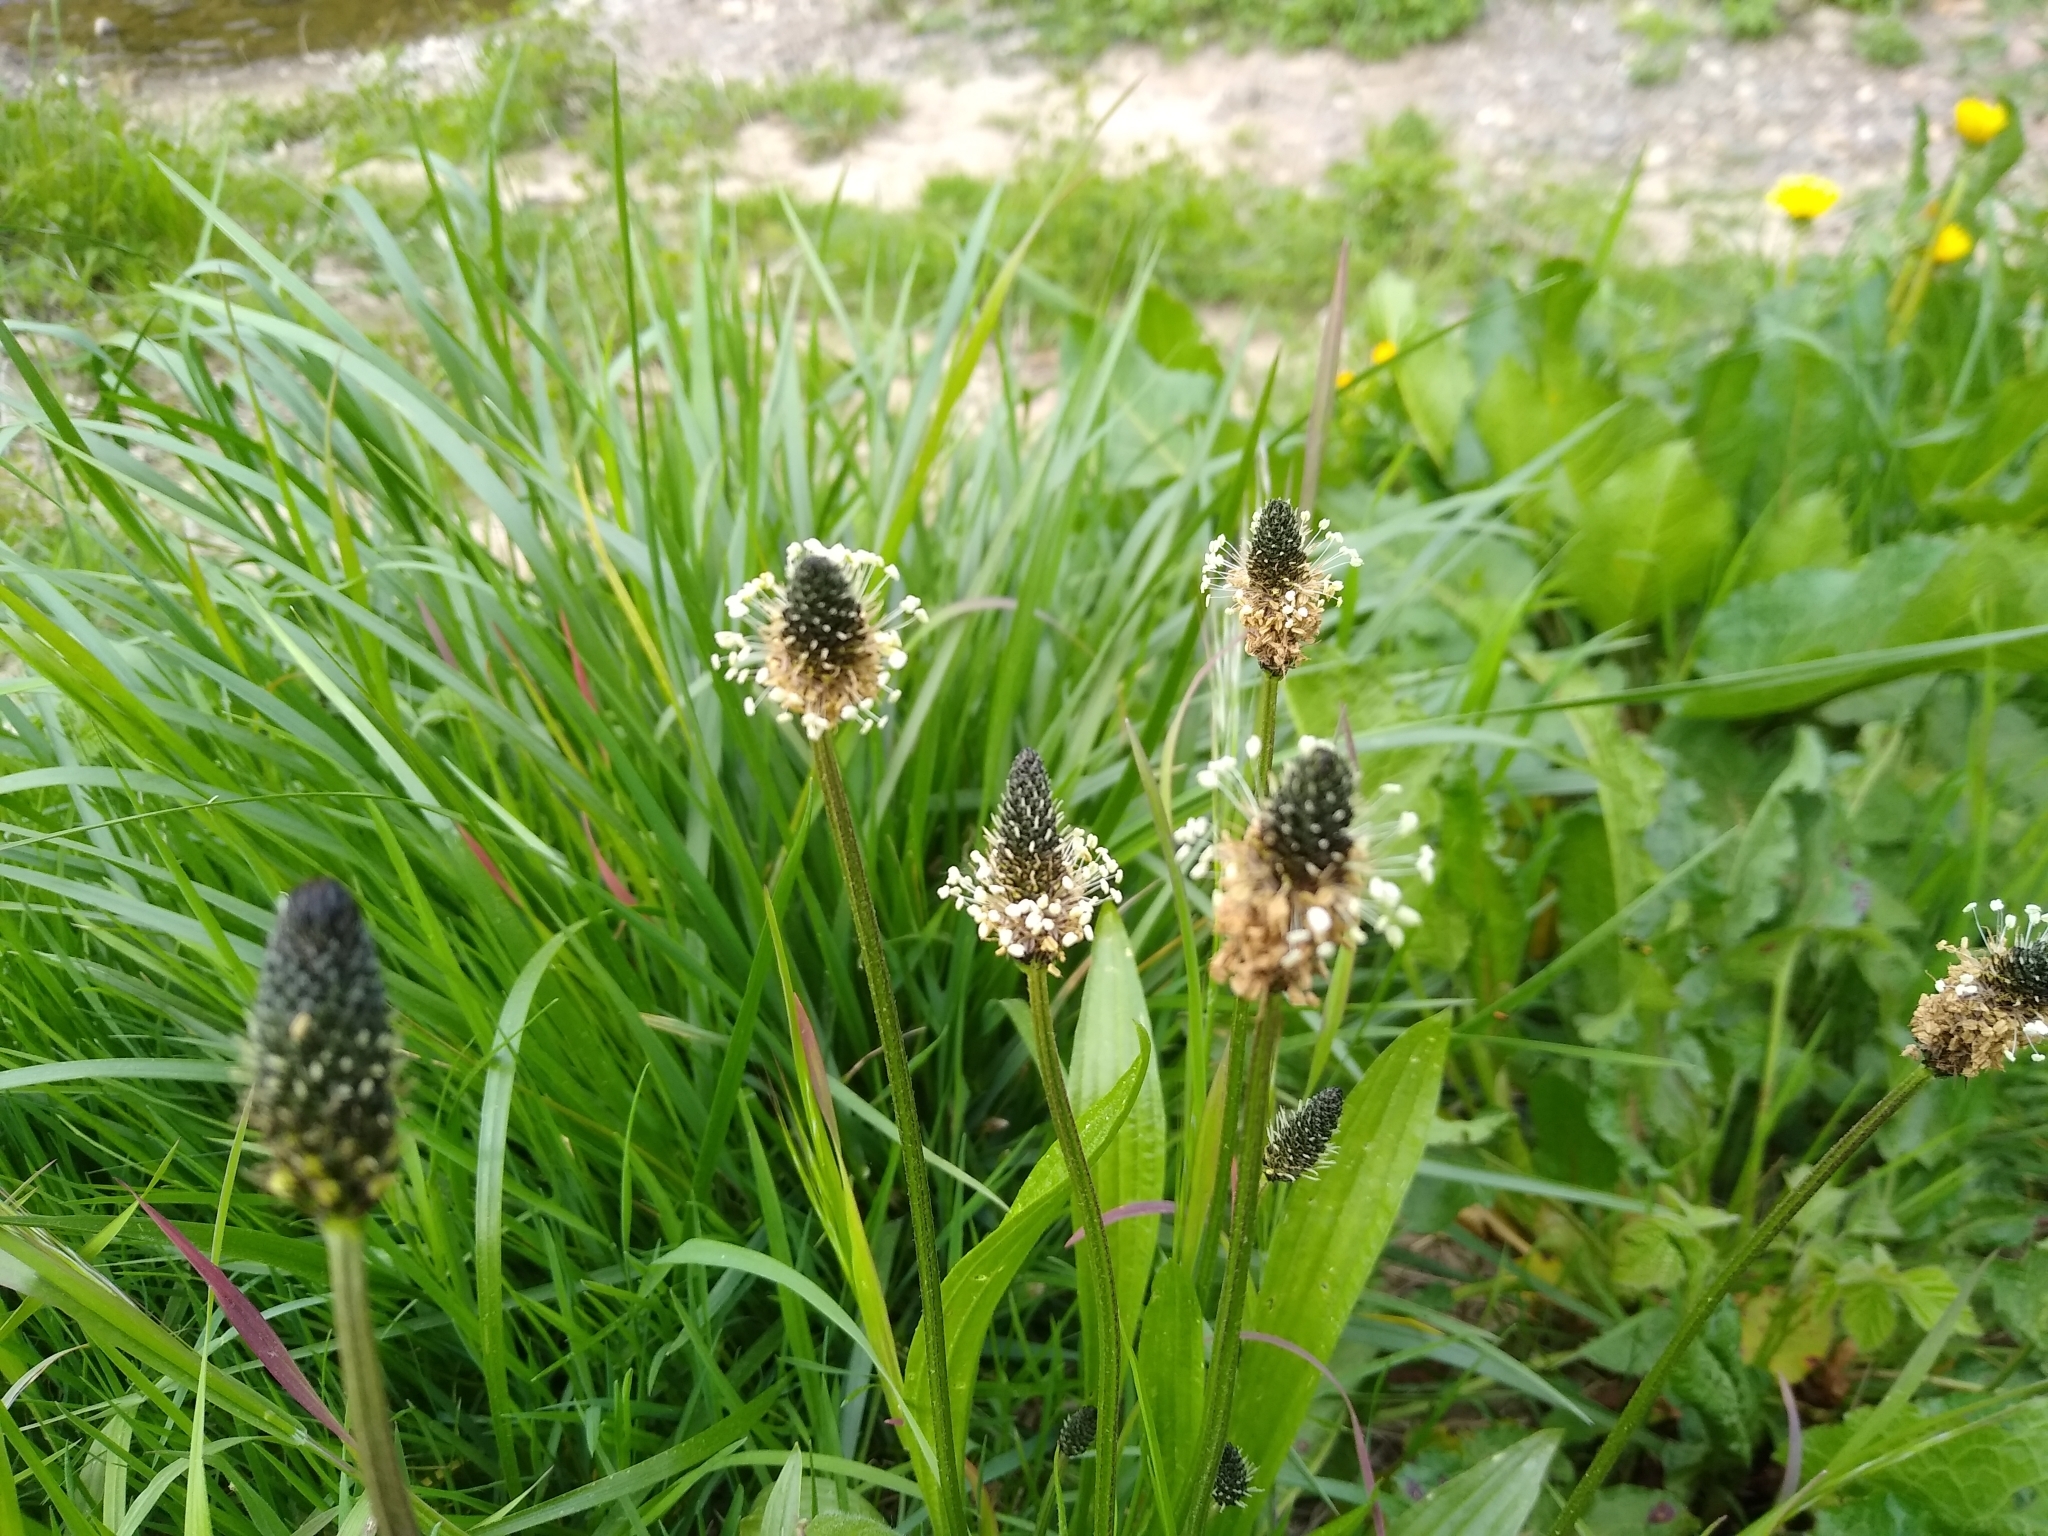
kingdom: Plantae
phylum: Tracheophyta
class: Magnoliopsida
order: Lamiales
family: Plantaginaceae
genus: Plantago
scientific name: Plantago lanceolata
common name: Ribwort plantain
